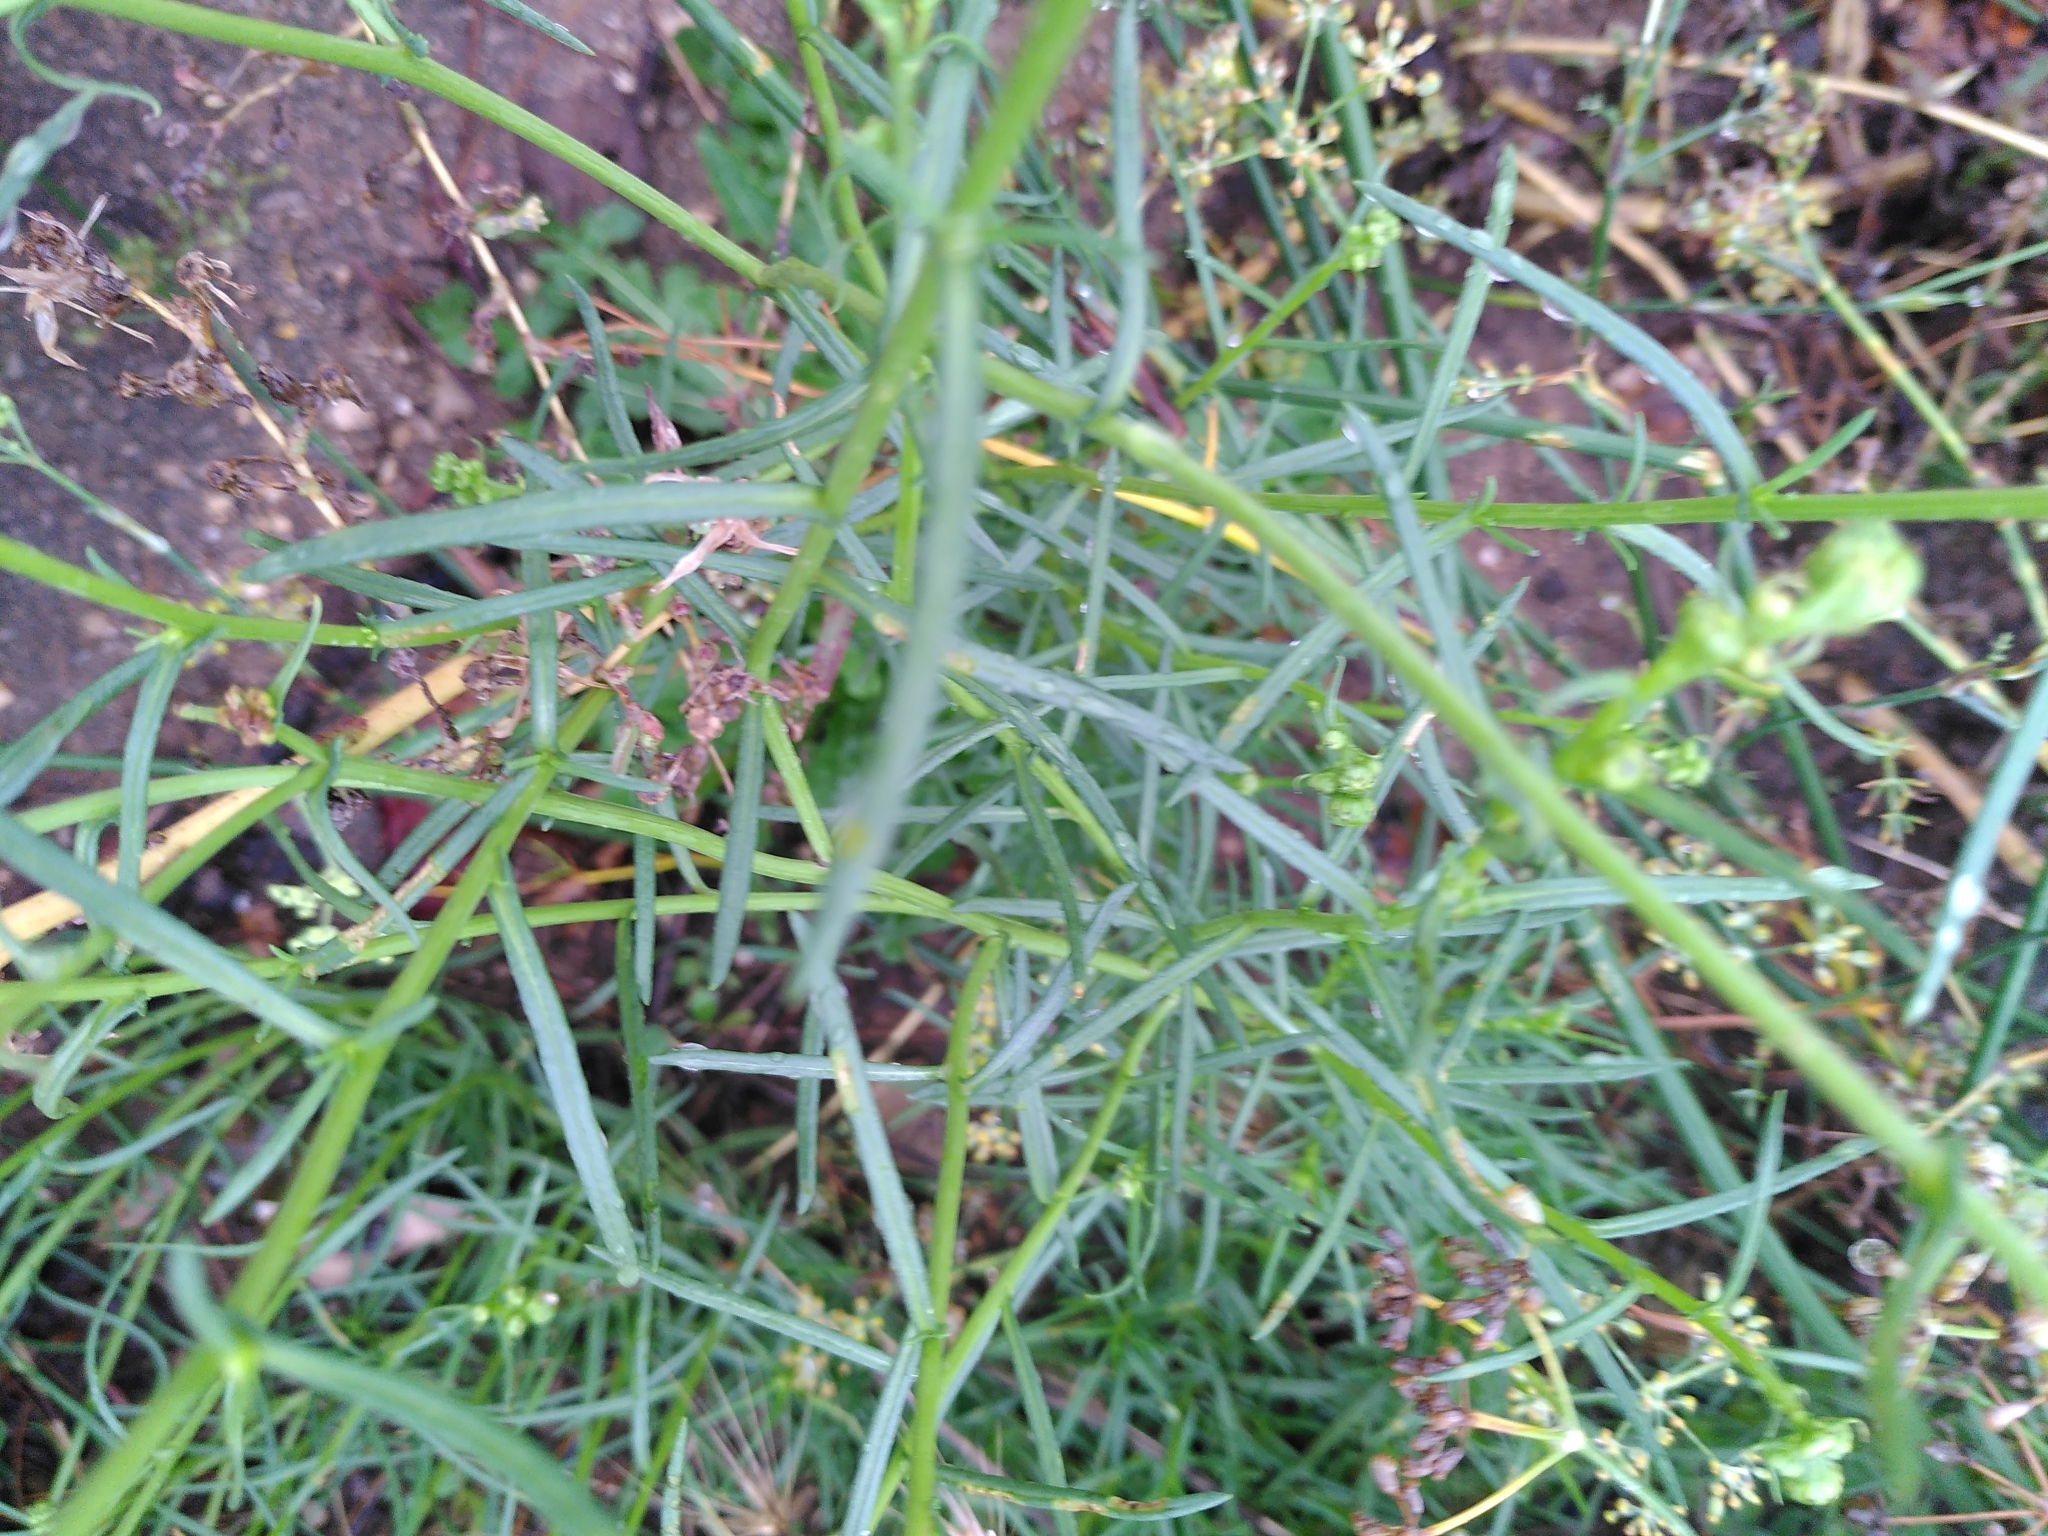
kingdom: Plantae
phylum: Tracheophyta
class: Magnoliopsida
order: Asterales
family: Asteraceae
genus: Senecio
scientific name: Senecio inaequidens
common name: Narrow-leaved ragwort
